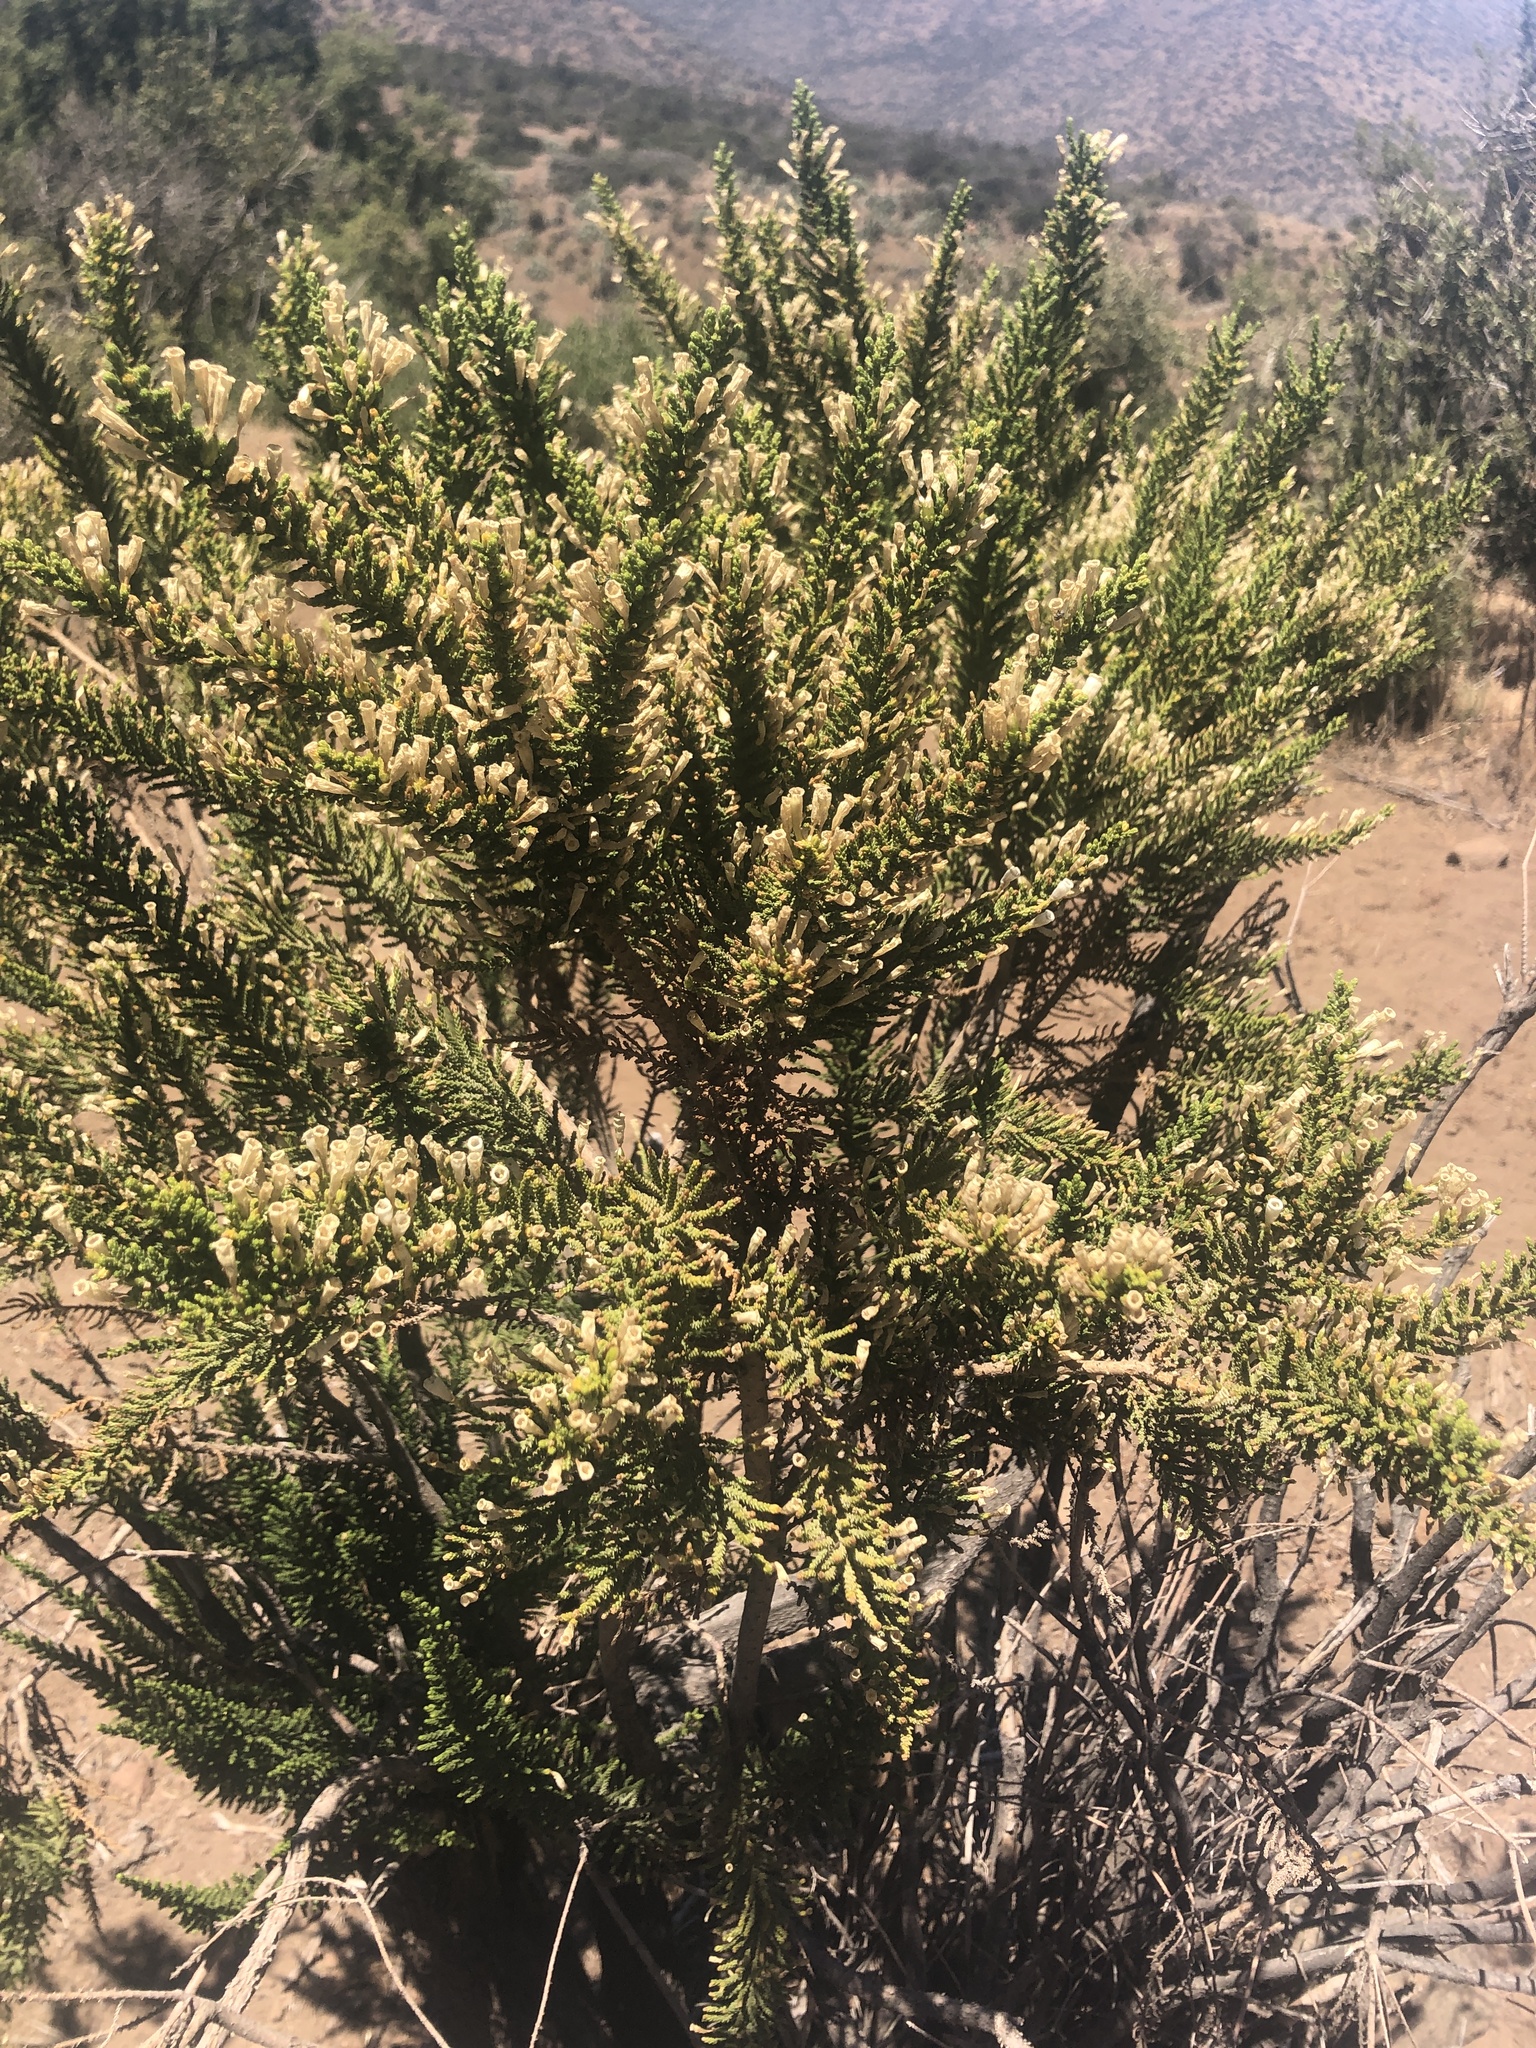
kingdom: Plantae
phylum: Tracheophyta
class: Magnoliopsida
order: Solanales
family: Solanaceae
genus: Fabiana
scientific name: Fabiana imbricata
